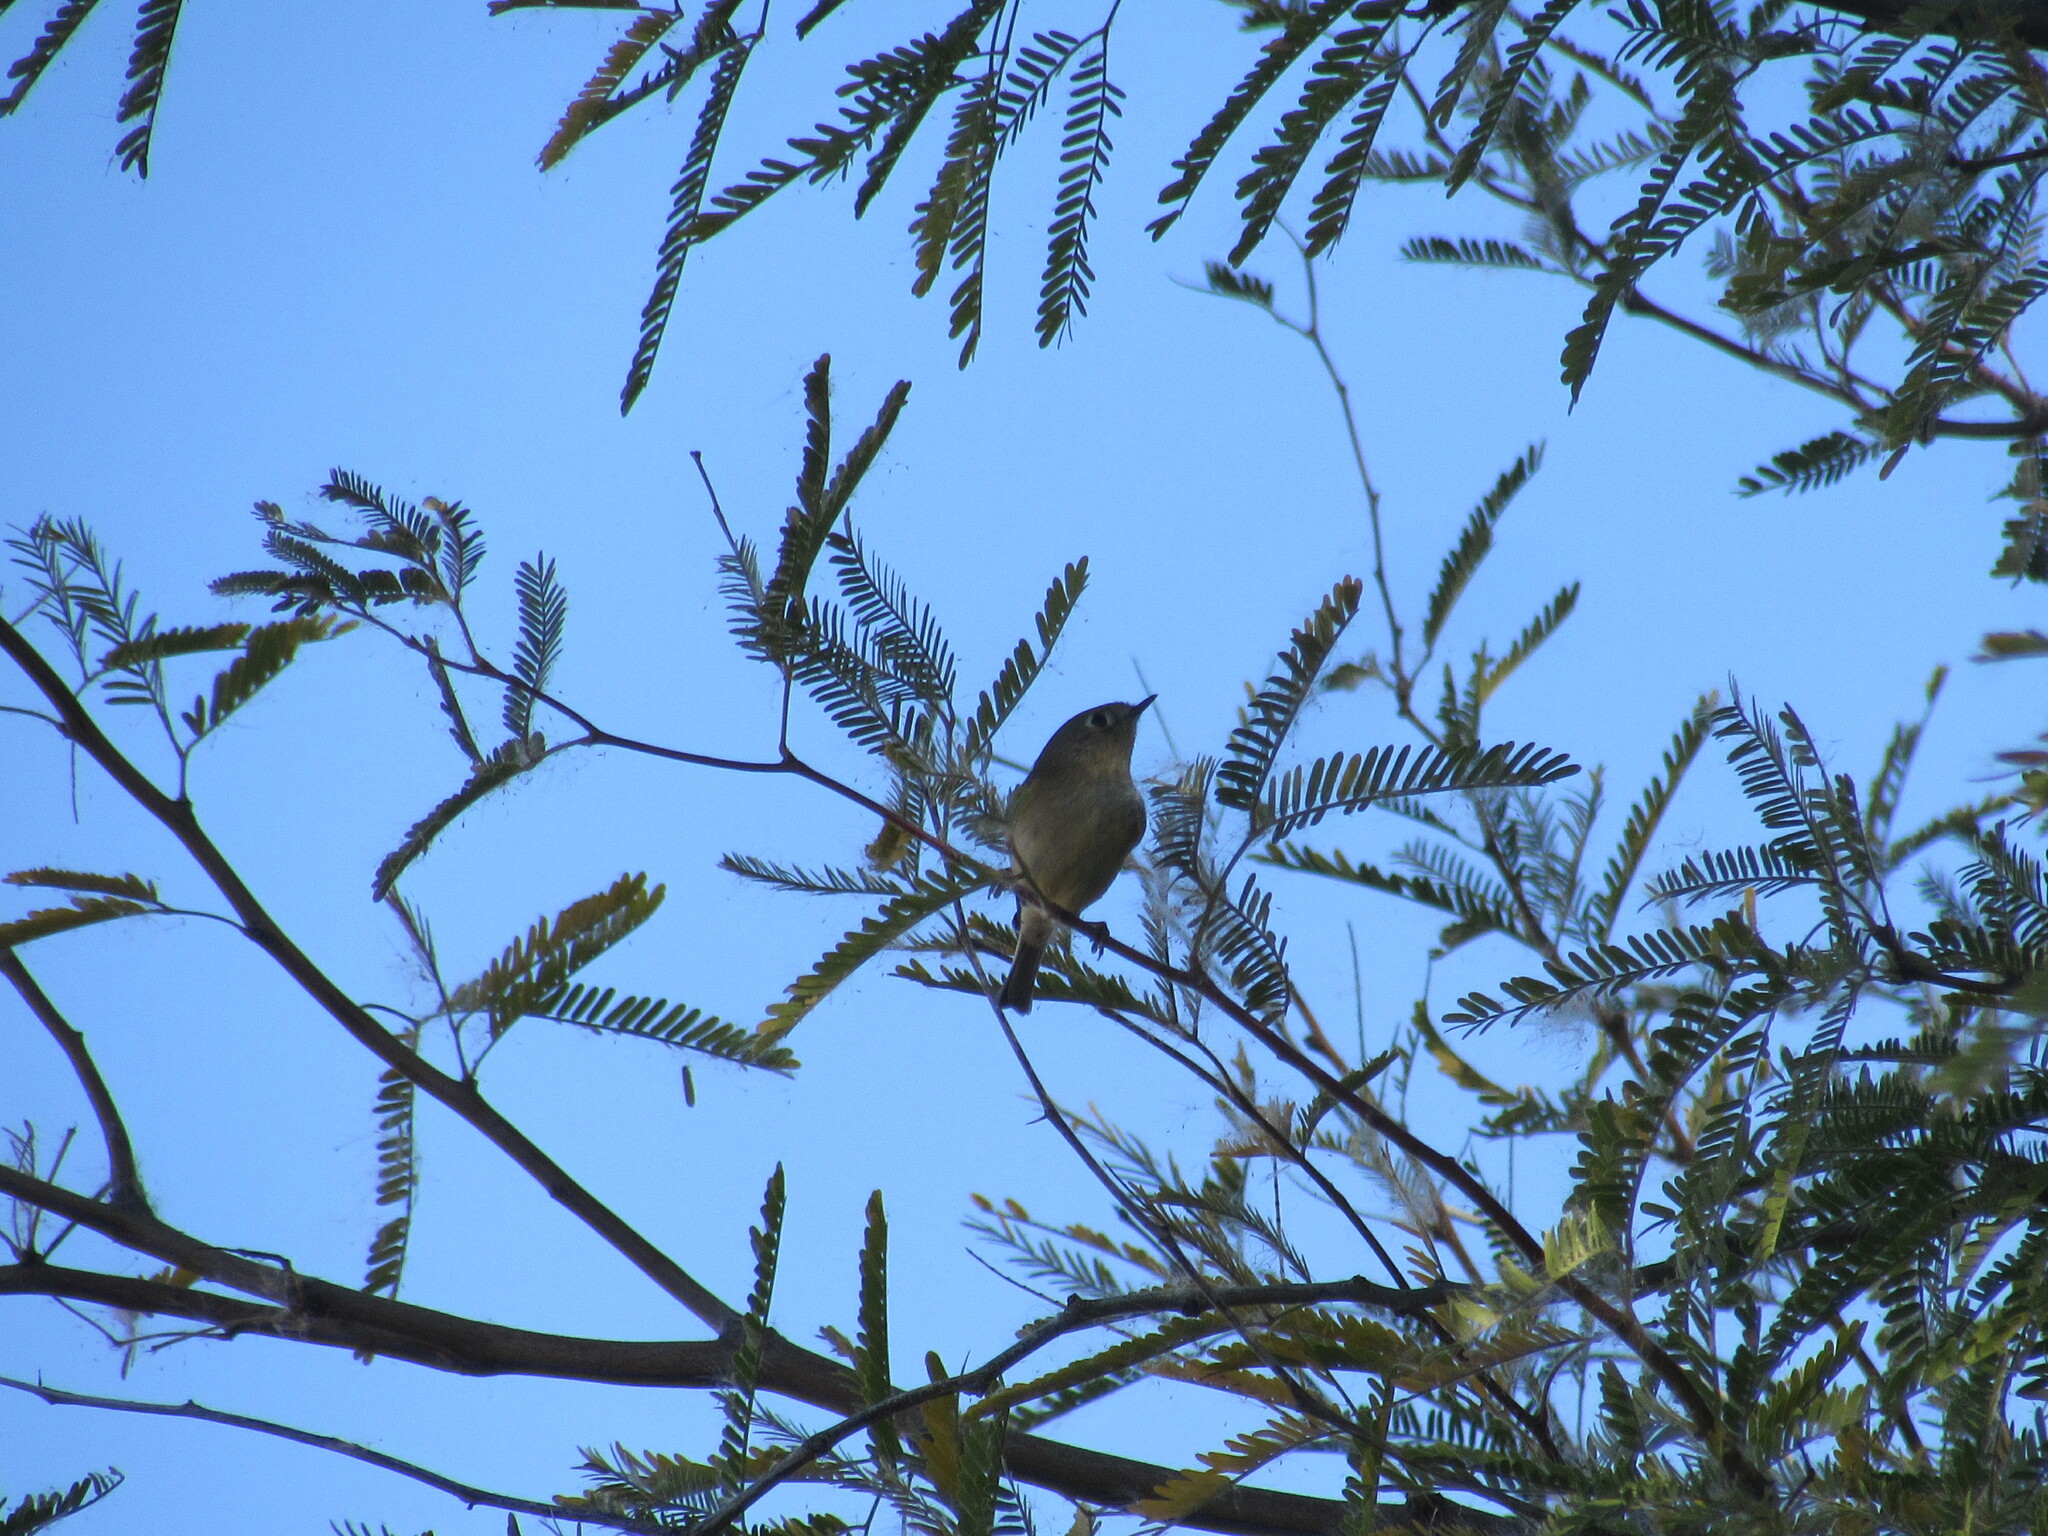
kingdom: Animalia
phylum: Chordata
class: Aves
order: Passeriformes
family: Regulidae
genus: Regulus
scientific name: Regulus calendula
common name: Ruby-crowned kinglet
